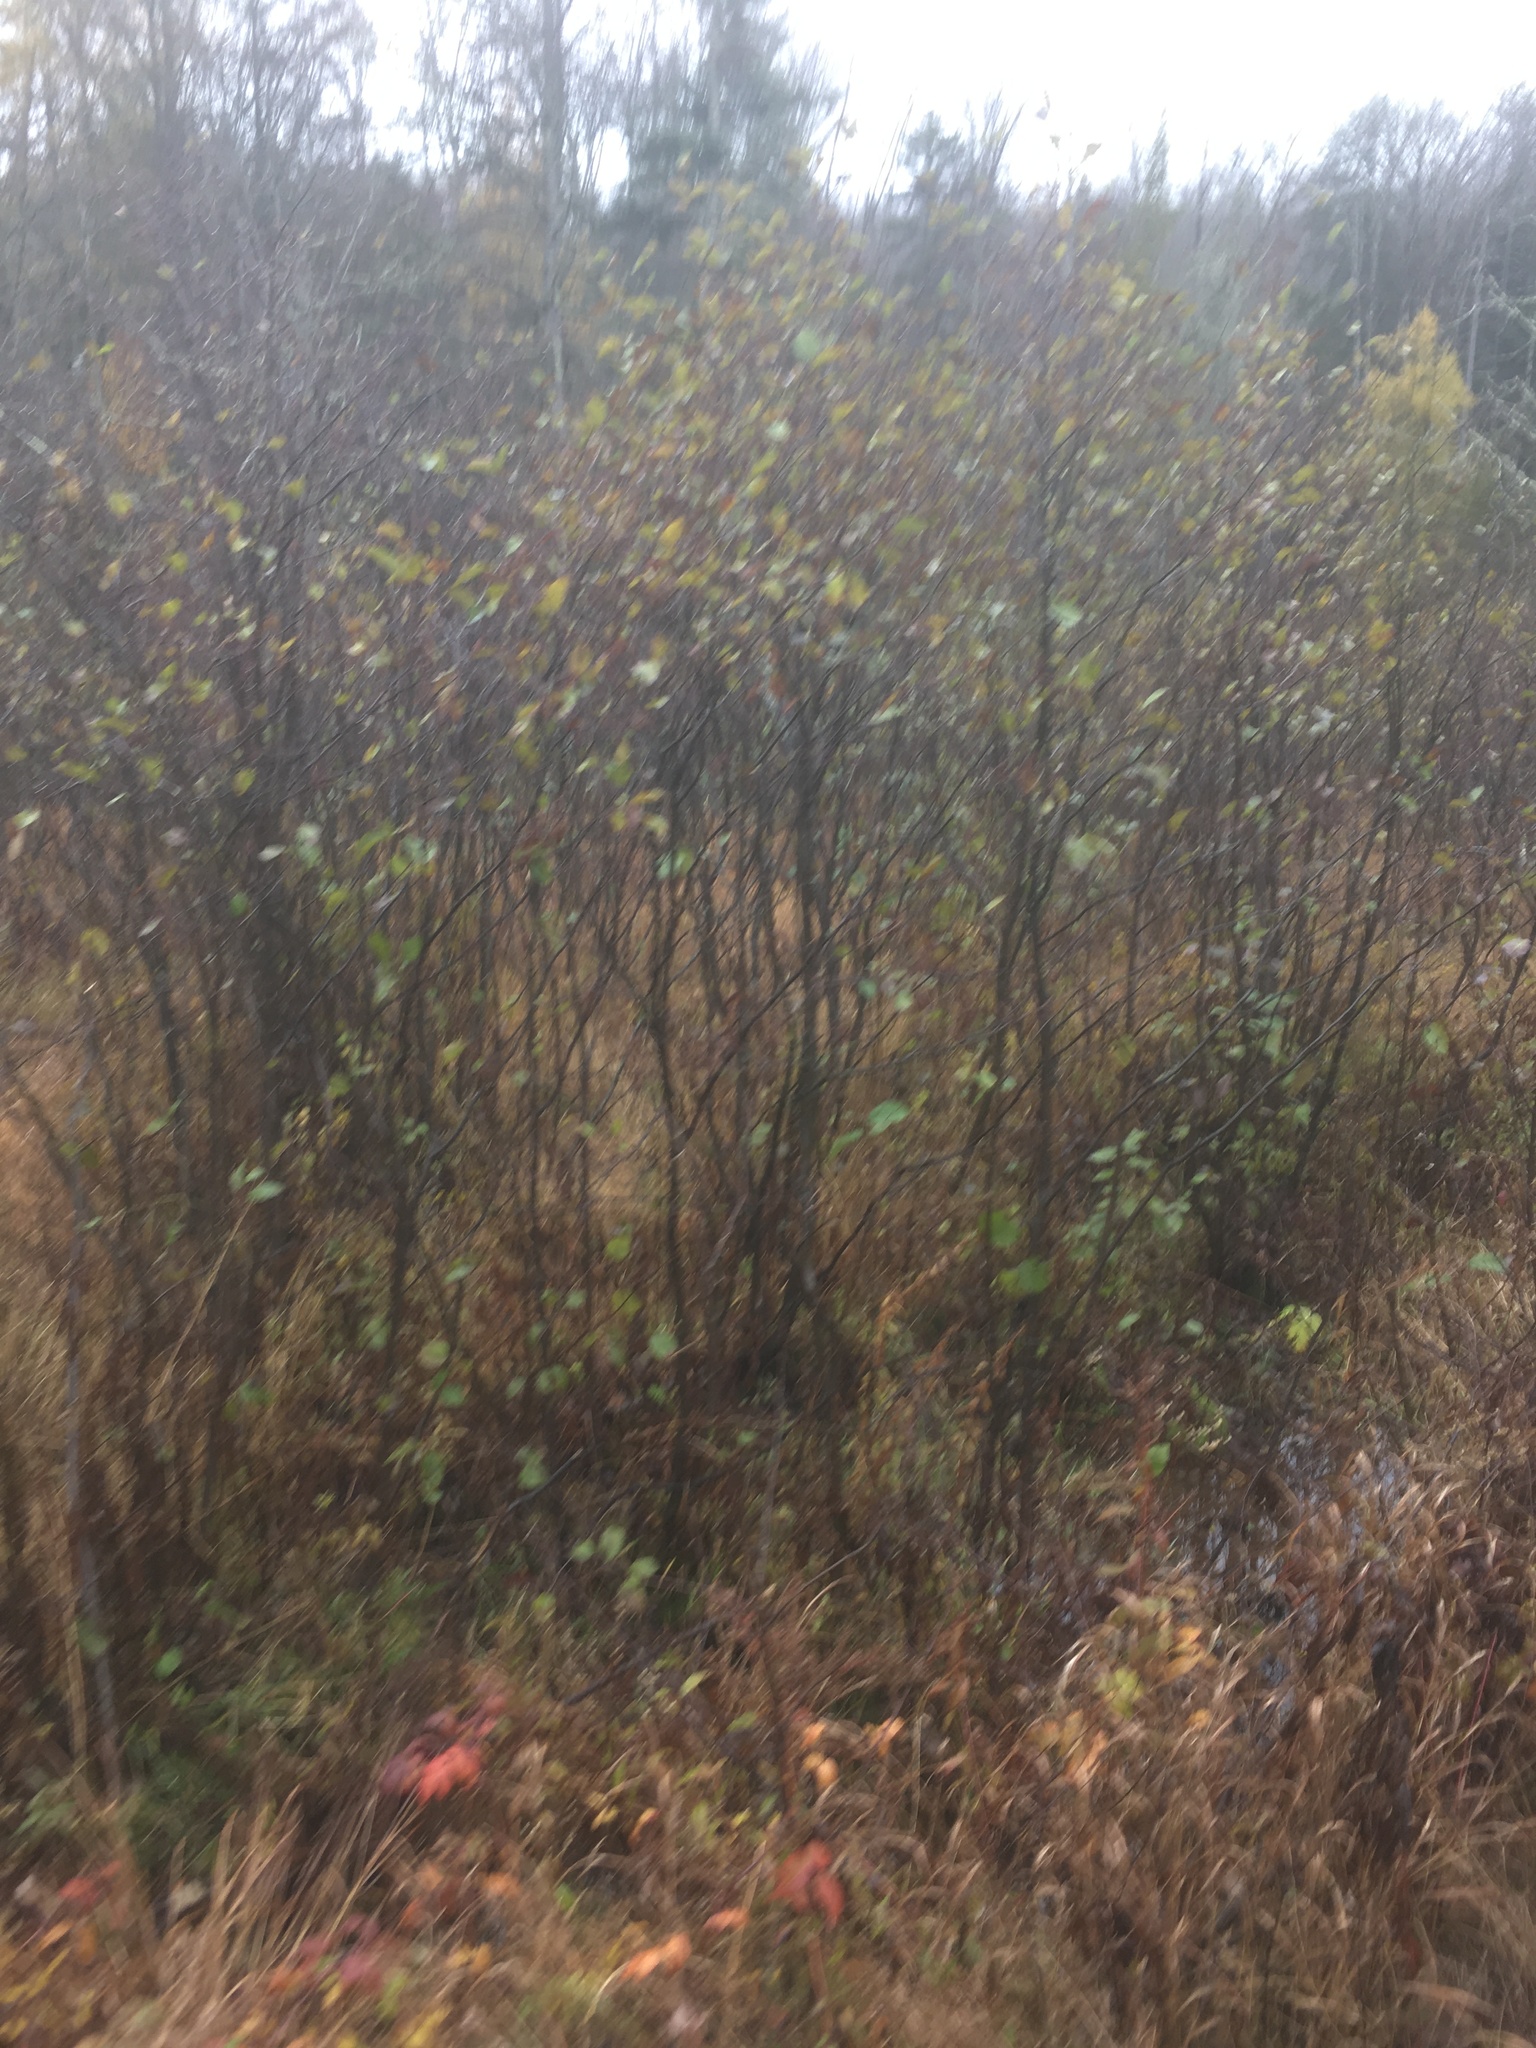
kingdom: Plantae
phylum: Tracheophyta
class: Magnoliopsida
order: Fagales
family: Betulaceae
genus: Alnus
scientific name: Alnus incana
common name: Grey alder
